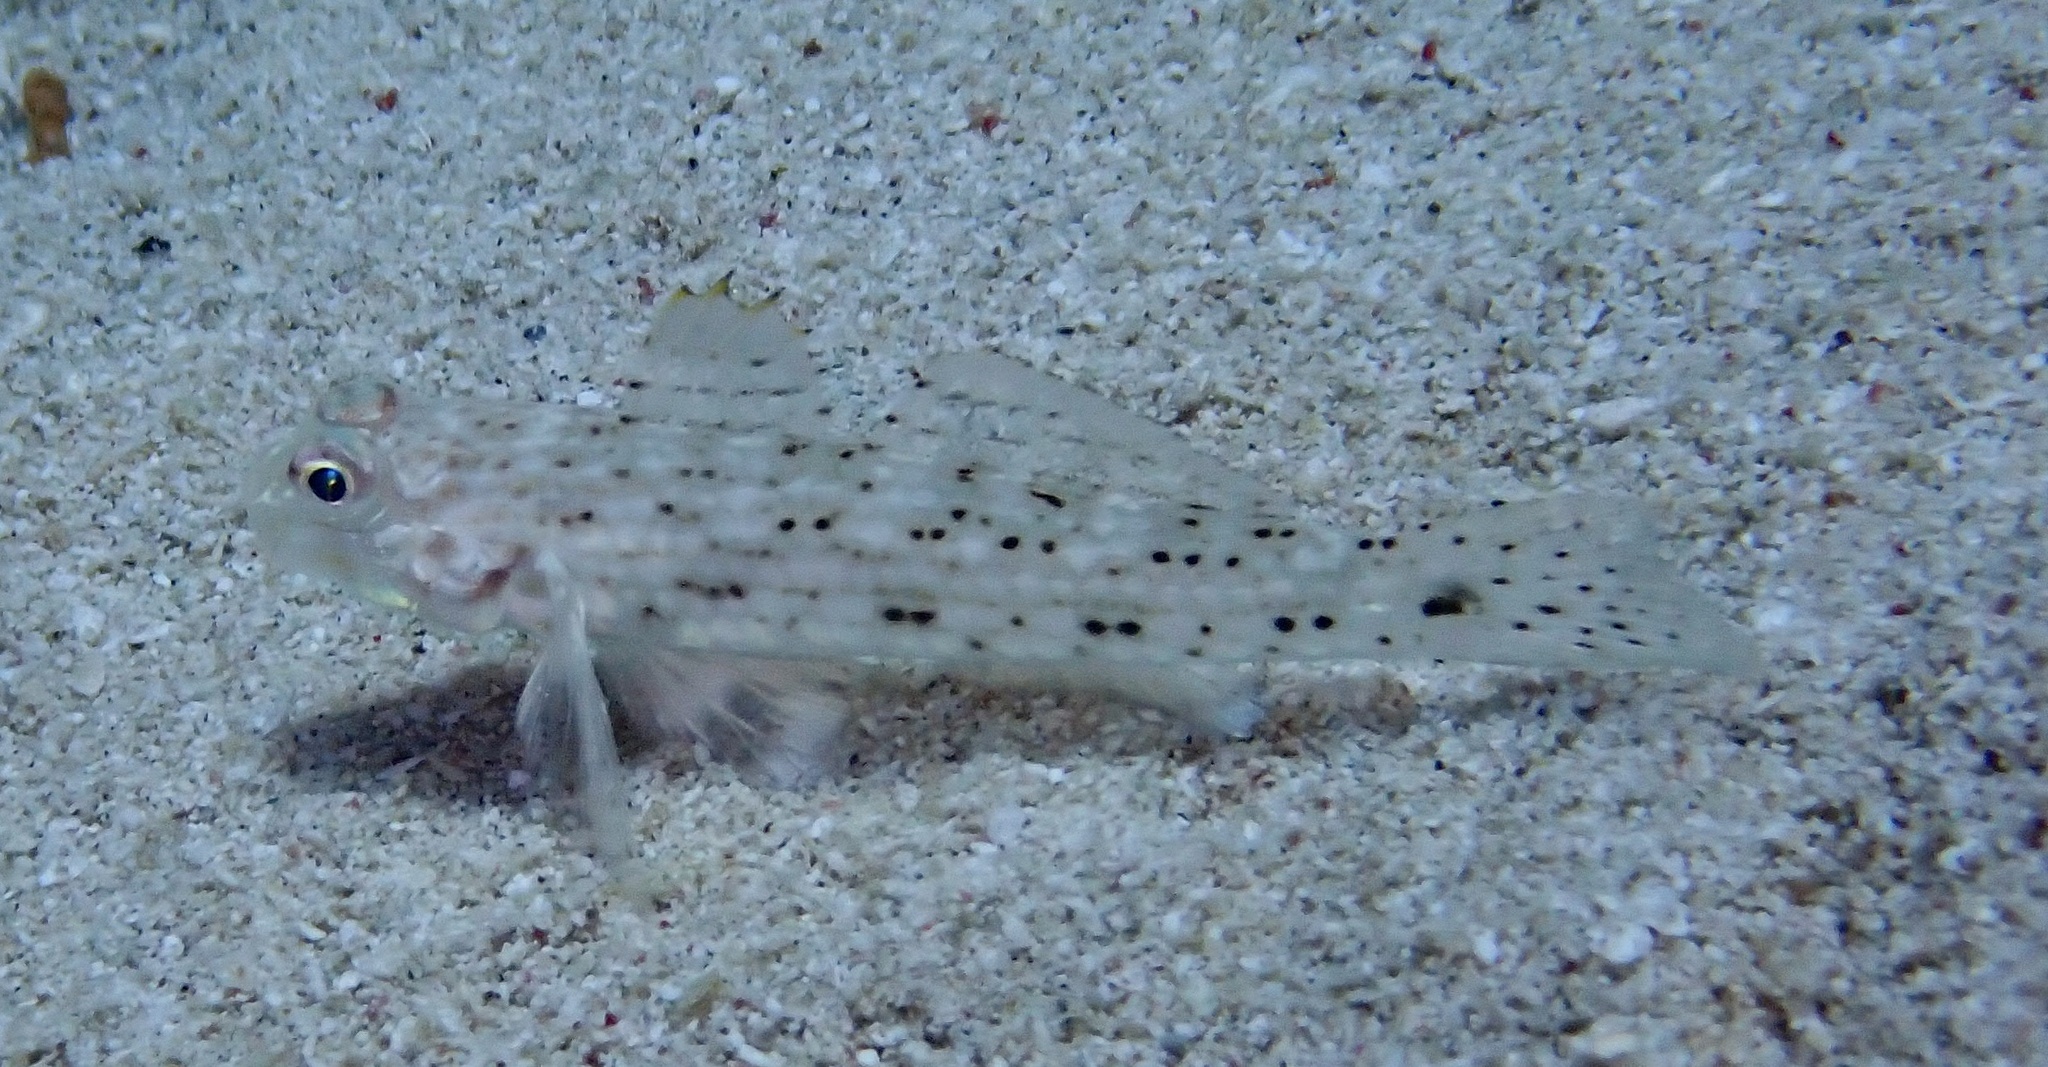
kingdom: Animalia
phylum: Chordata
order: Perciformes
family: Gobiidae
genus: Istigobius
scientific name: Istigobius decoratus
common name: Decorated goby
